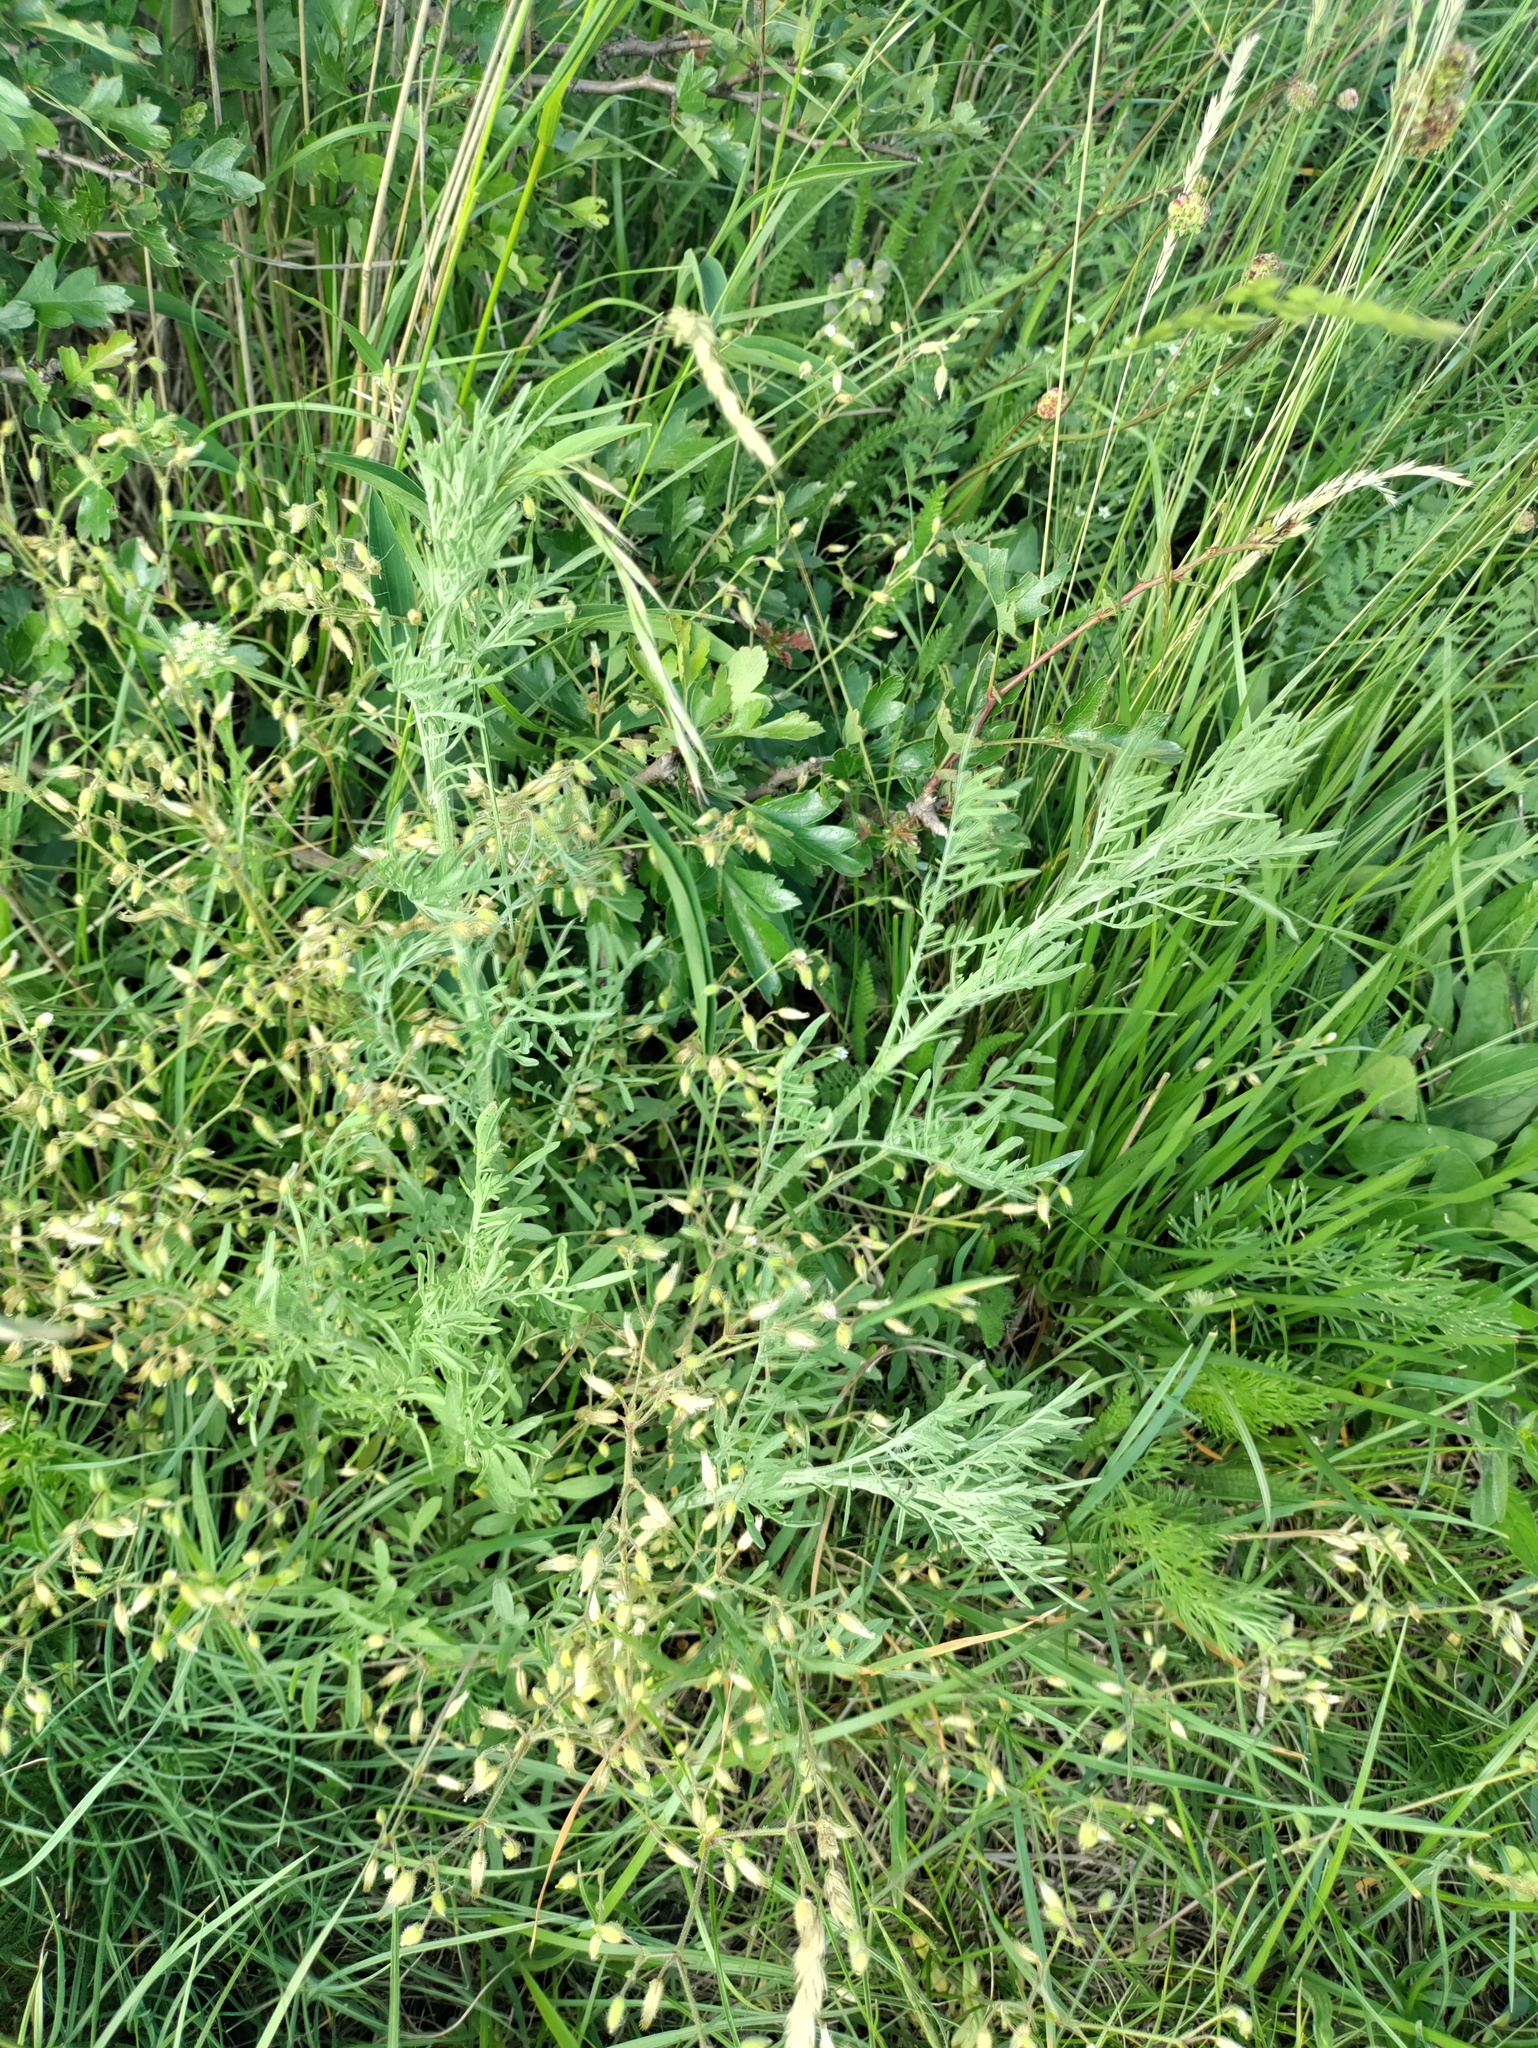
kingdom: Plantae
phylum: Tracheophyta
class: Magnoliopsida
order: Asterales
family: Asteraceae
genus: Centaurea
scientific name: Centaurea stoebe
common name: Spotted knapweed
